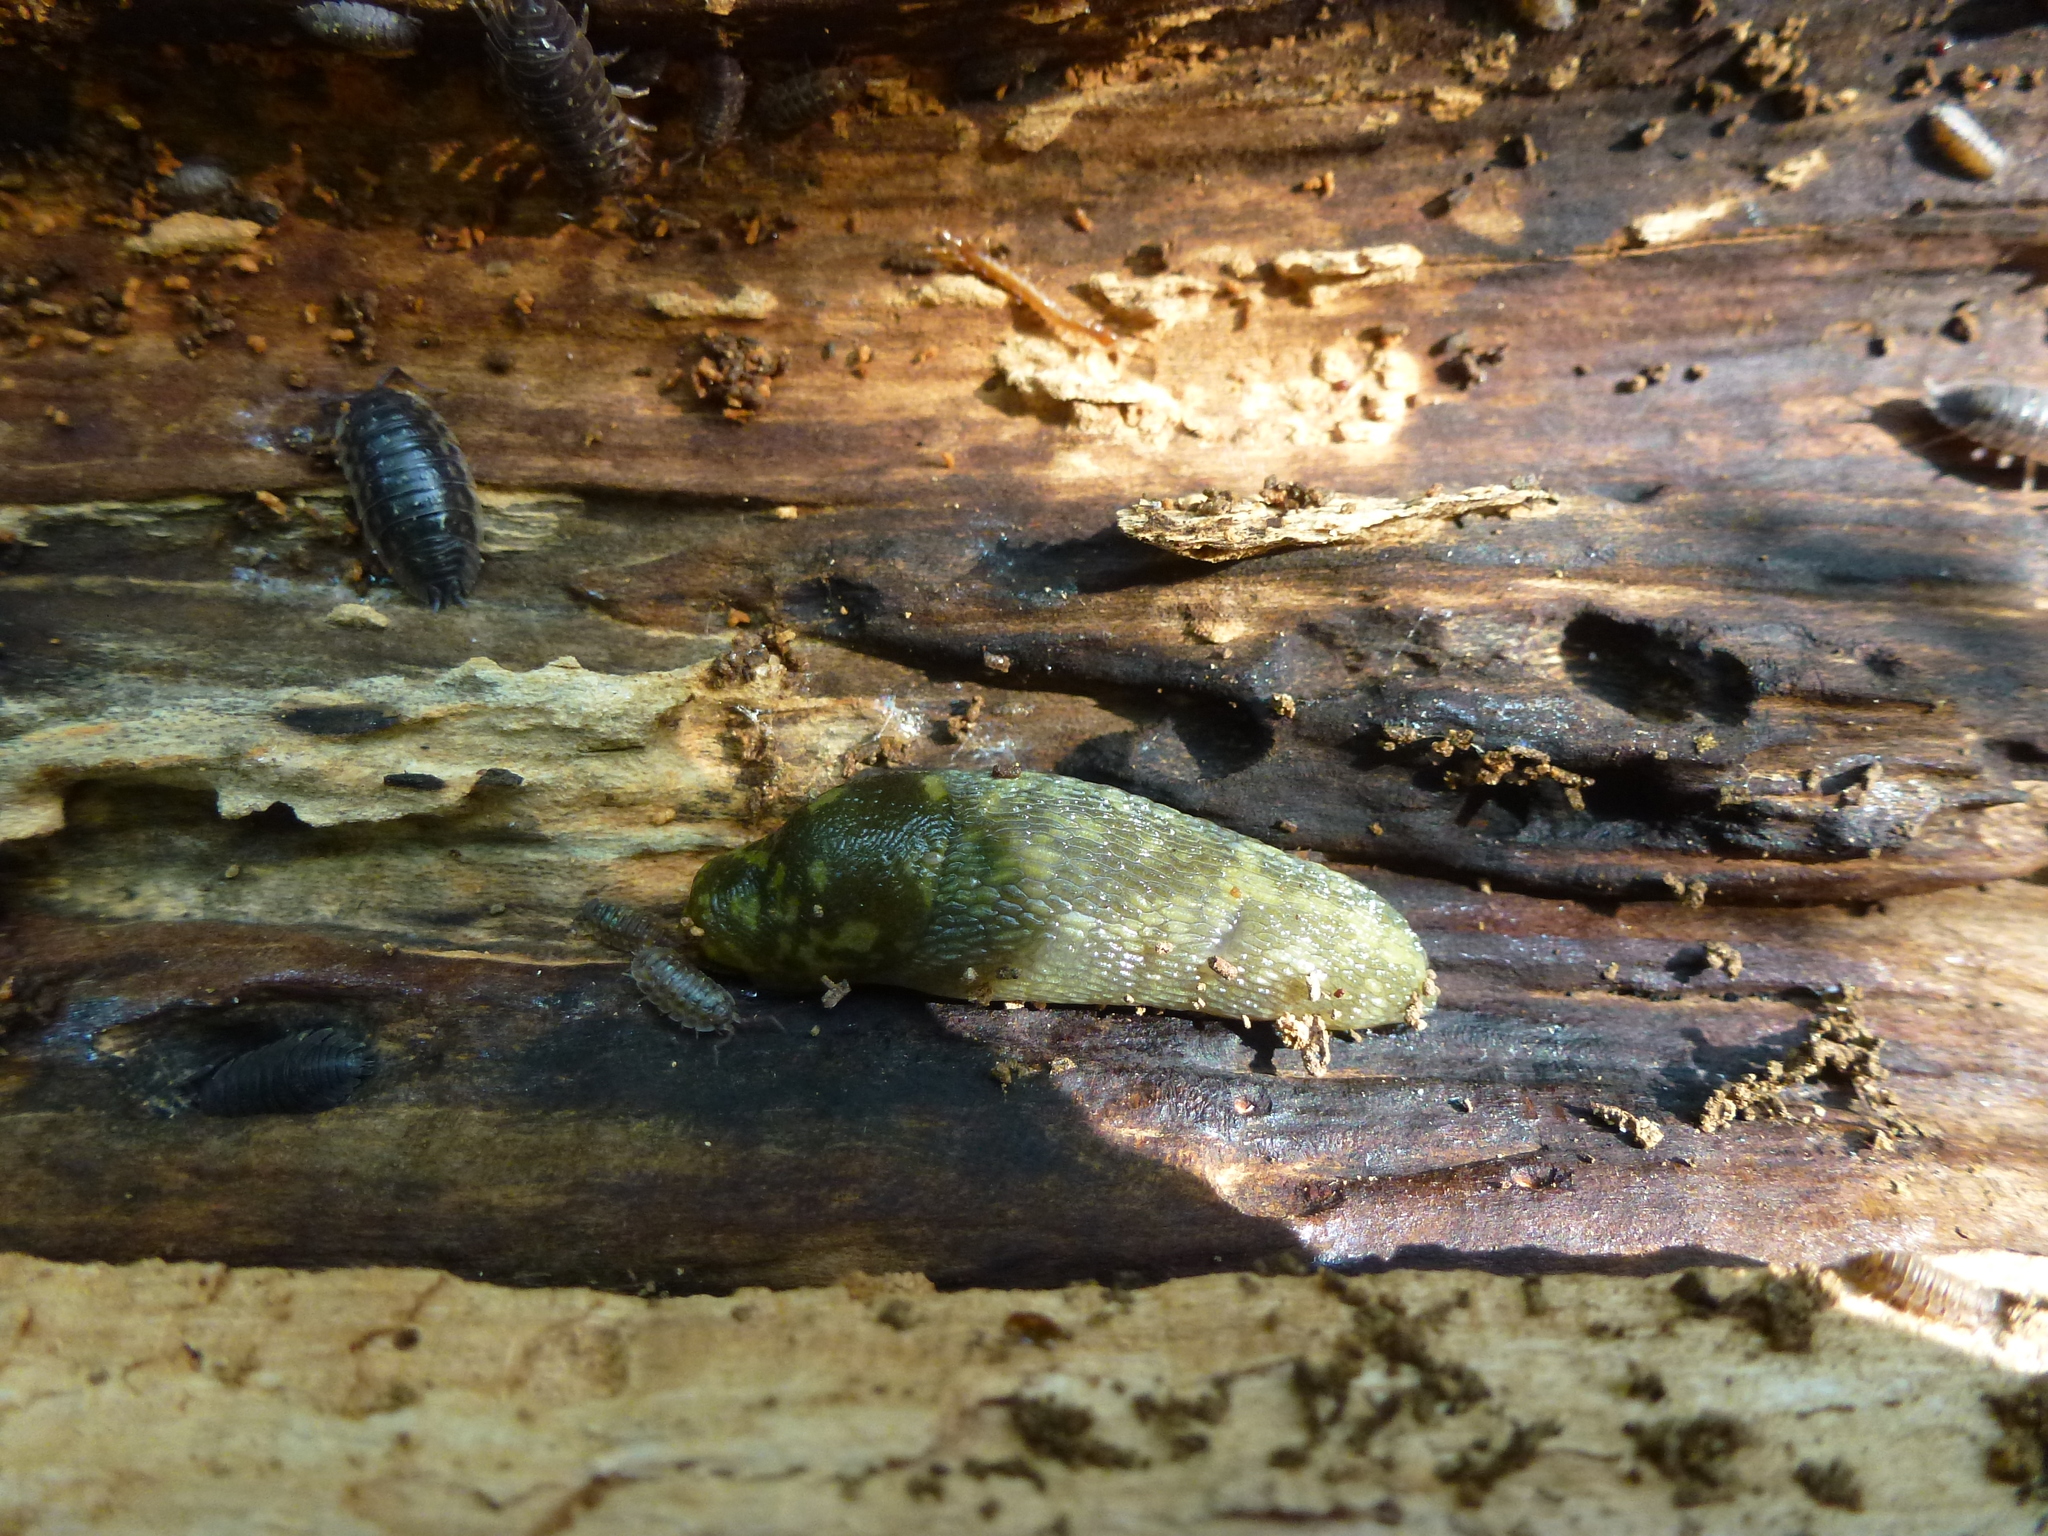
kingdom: Animalia
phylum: Mollusca
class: Gastropoda
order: Stylommatophora
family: Limacidae
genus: Limacus
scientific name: Limacus maculatus
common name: Irish yellow slug
